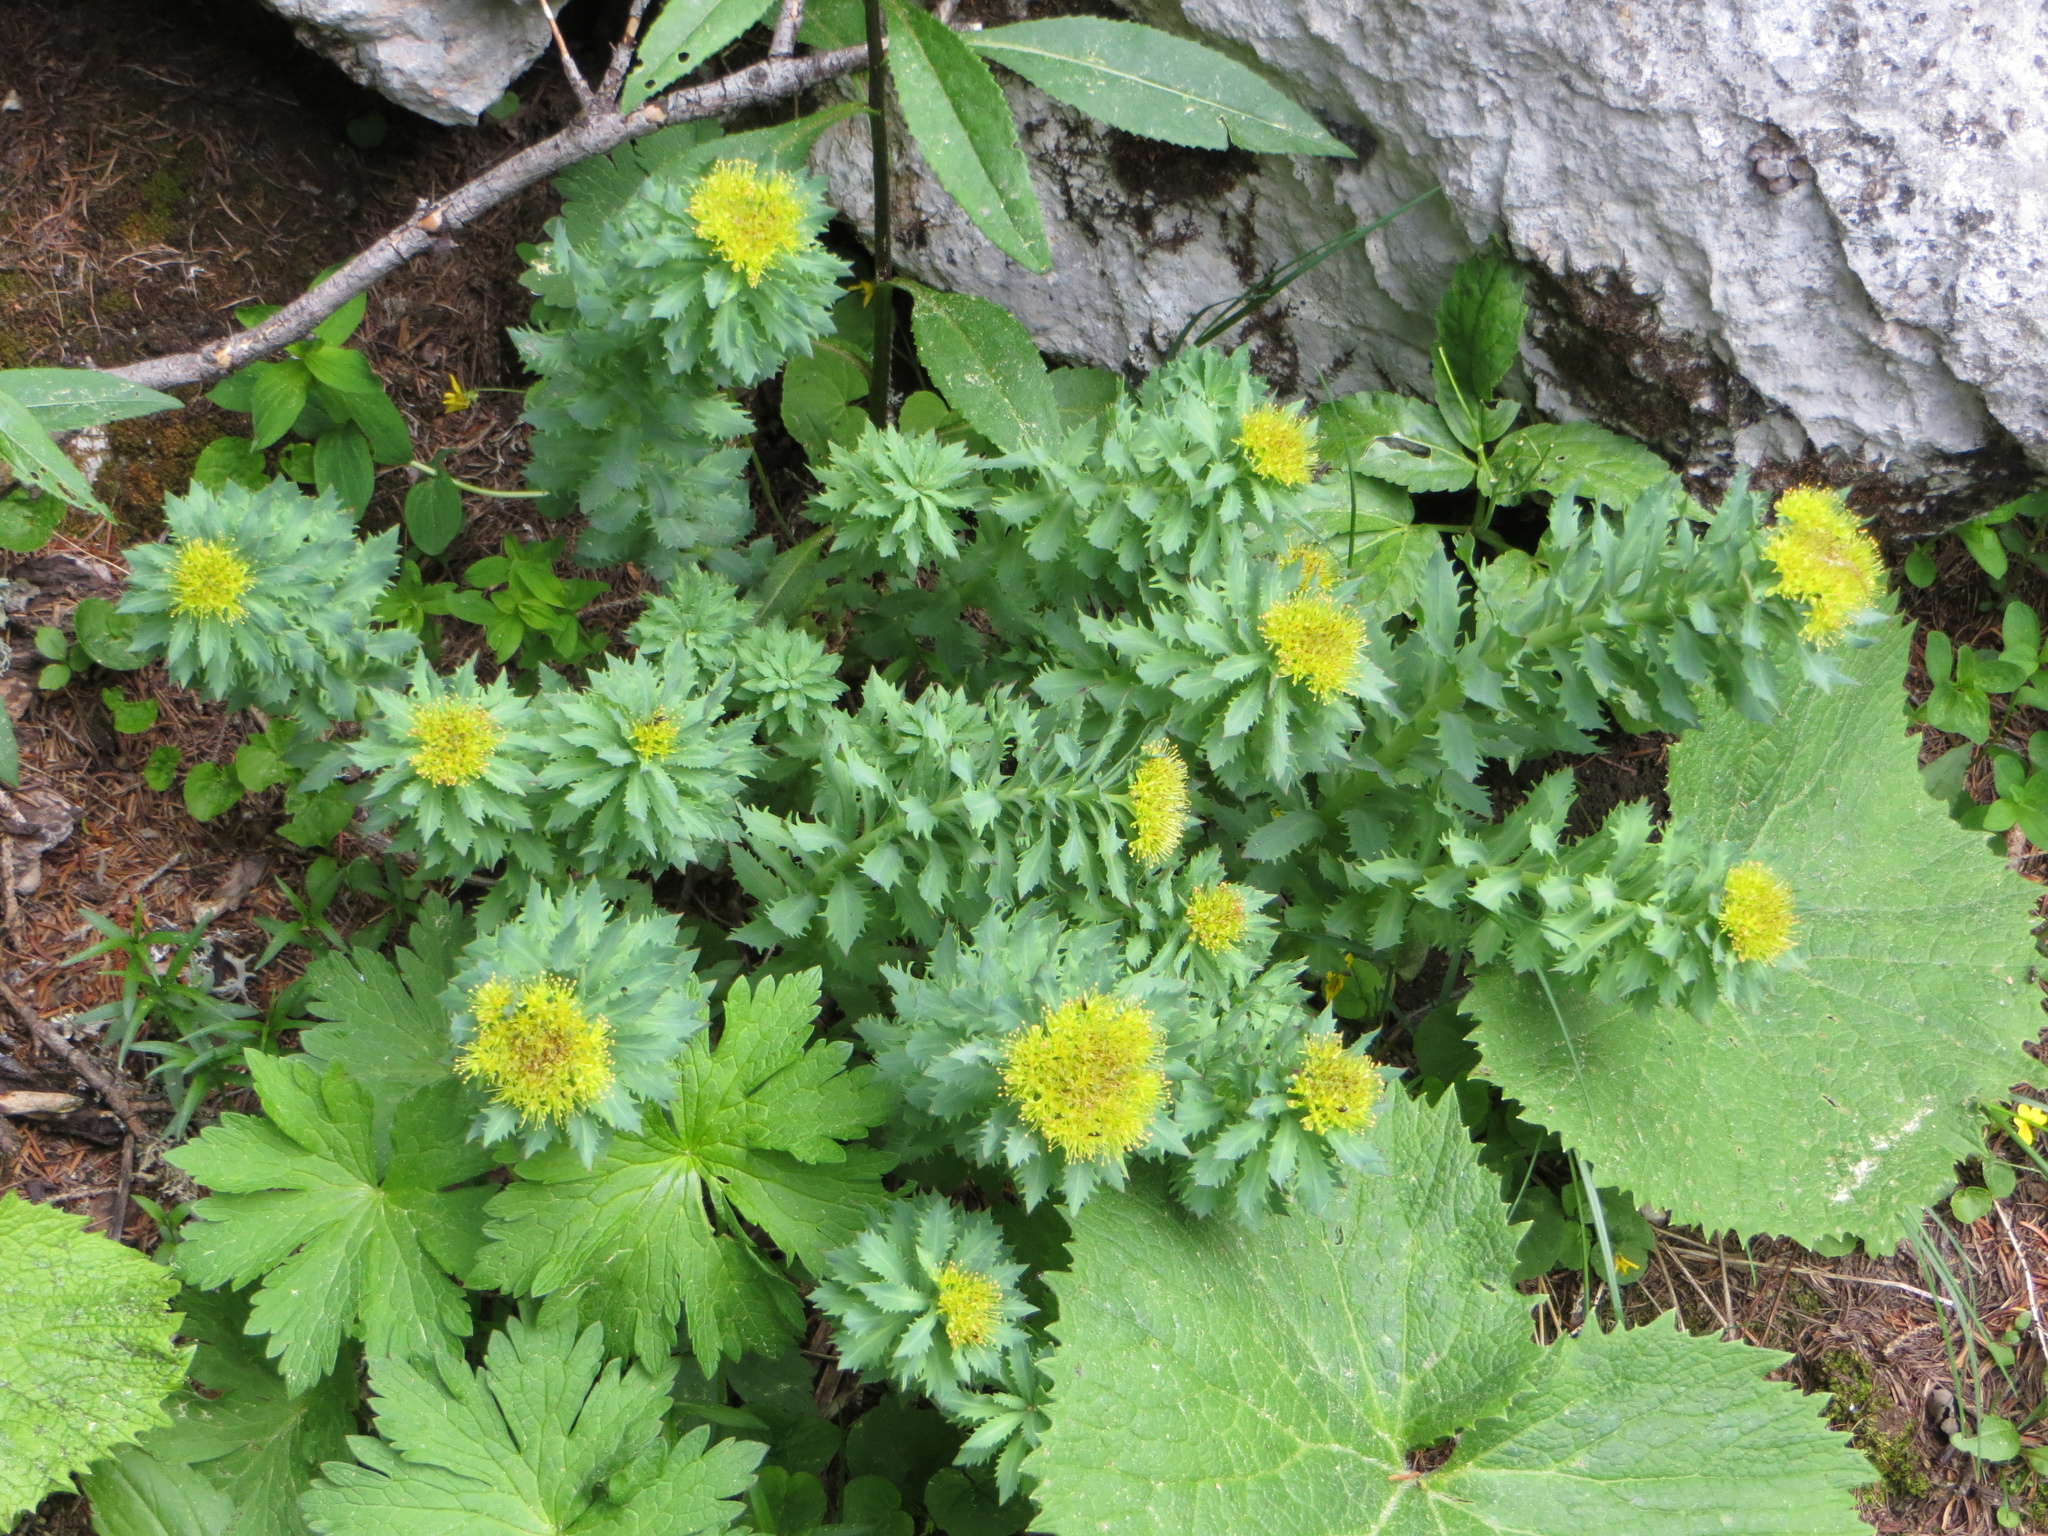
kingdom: Plantae
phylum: Tracheophyta
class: Magnoliopsida
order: Saxifragales
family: Crassulaceae
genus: Rhodiola
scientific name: Rhodiola rosea
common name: Roseroot
